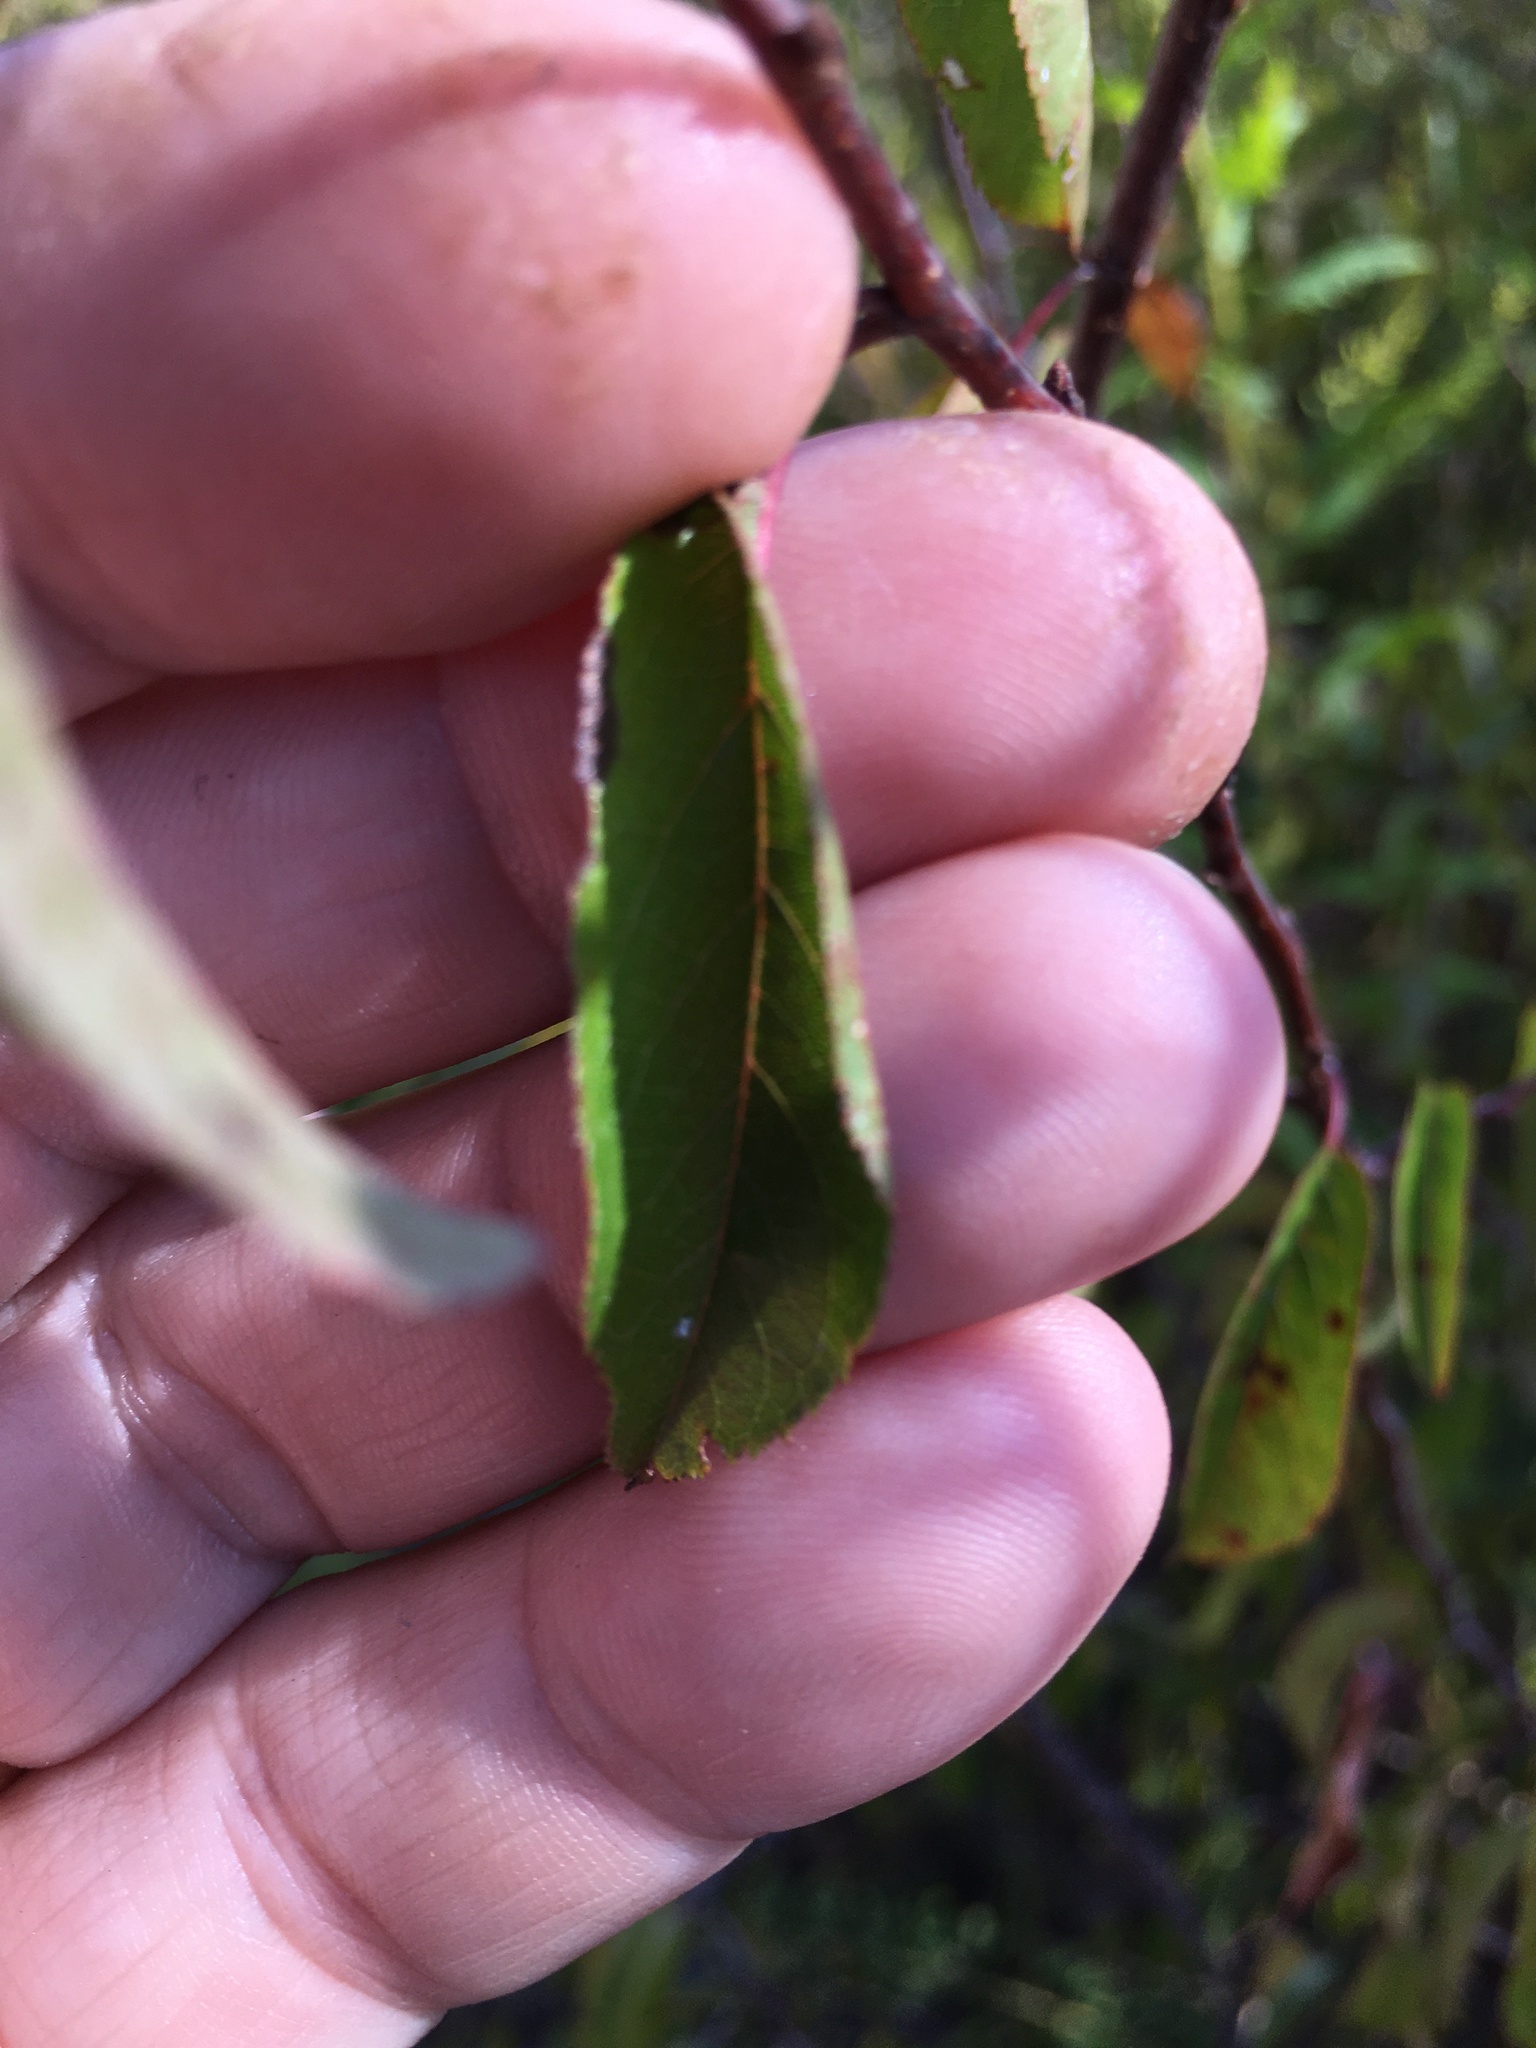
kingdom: Plantae
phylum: Tracheophyta
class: Magnoliopsida
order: Rosales
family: Rosaceae
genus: Prunus
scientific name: Prunus angustifolia
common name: Cherokee plum
